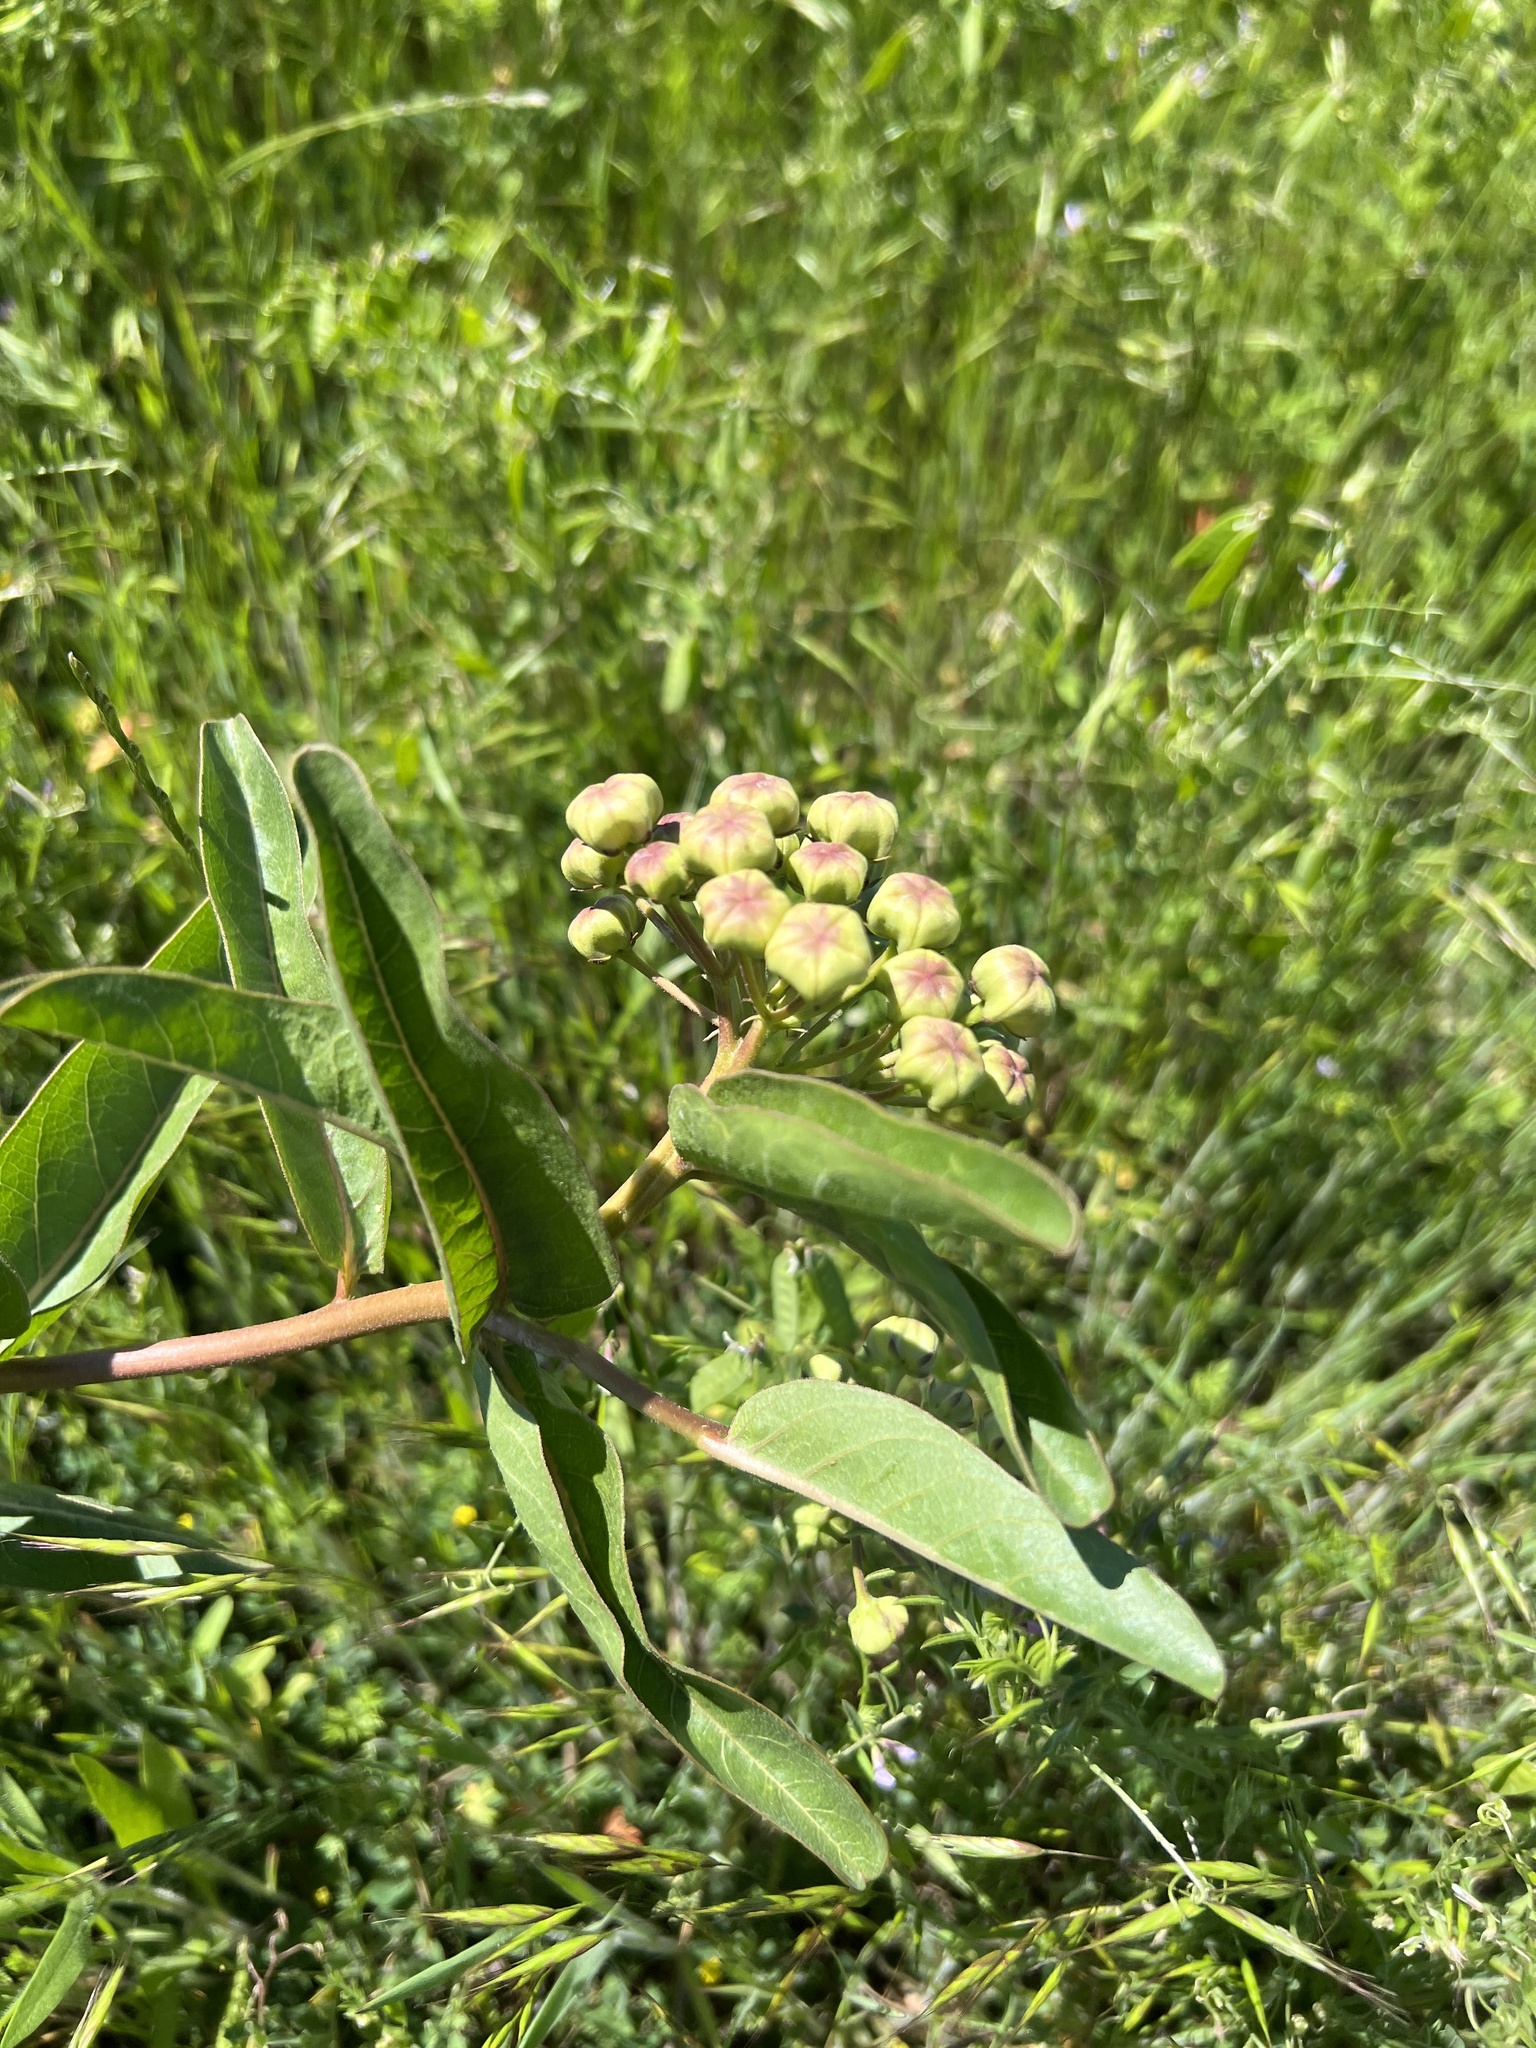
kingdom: Plantae
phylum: Tracheophyta
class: Magnoliopsida
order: Gentianales
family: Apocynaceae
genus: Asclepias
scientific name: Asclepias asperula
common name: Antelope horns
